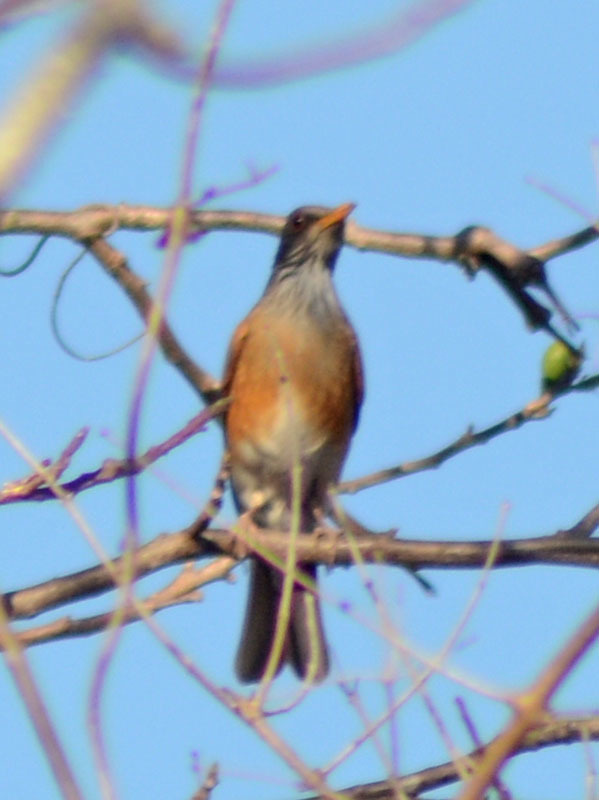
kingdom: Animalia
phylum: Chordata
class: Aves
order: Passeriformes
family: Turdidae
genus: Turdus
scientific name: Turdus rufopalliatus
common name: Rufous-backed robin
